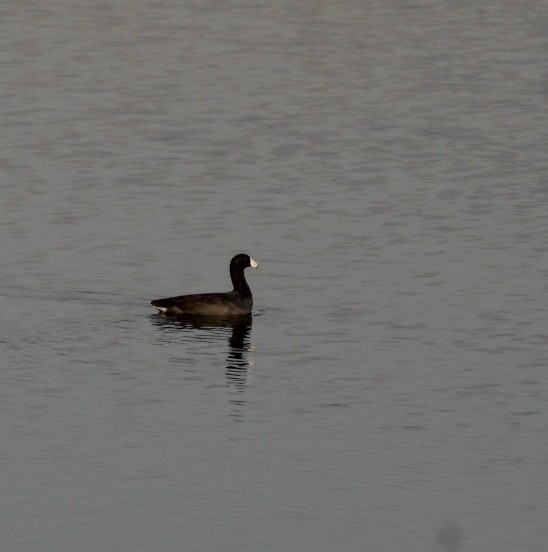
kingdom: Animalia
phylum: Chordata
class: Aves
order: Gruiformes
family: Rallidae
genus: Fulica
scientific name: Fulica americana
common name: American coot
